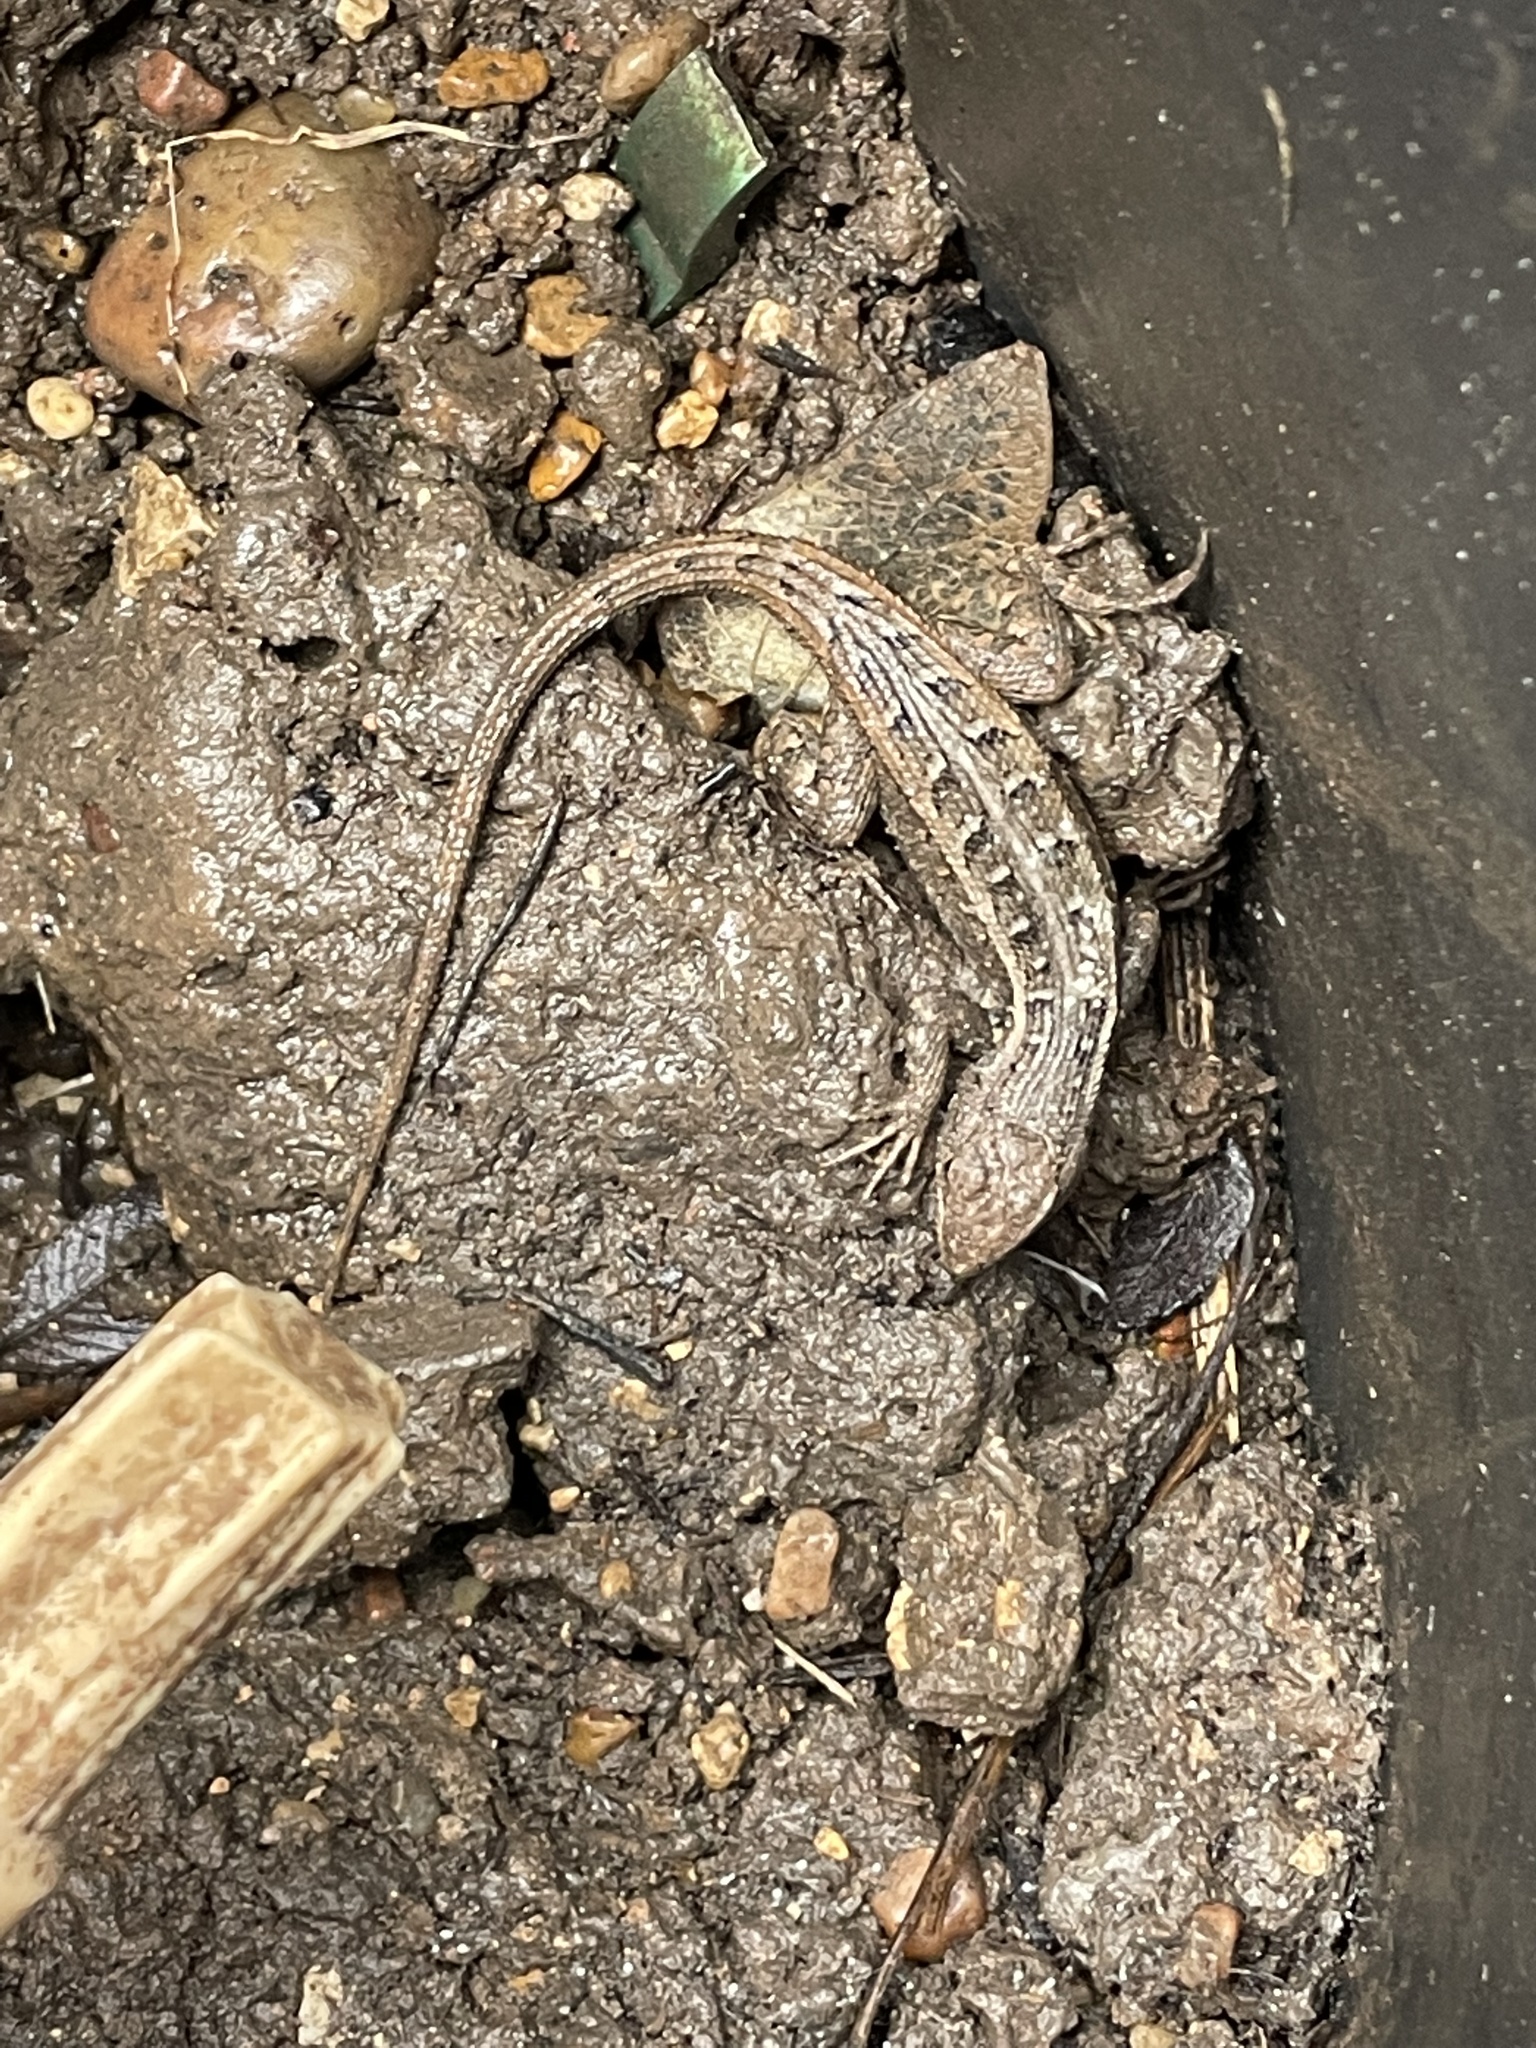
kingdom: Animalia
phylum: Chordata
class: Squamata
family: Phrynosomatidae
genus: Sceloporus
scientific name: Sceloporus variabilis
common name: Rosebelly lizard
